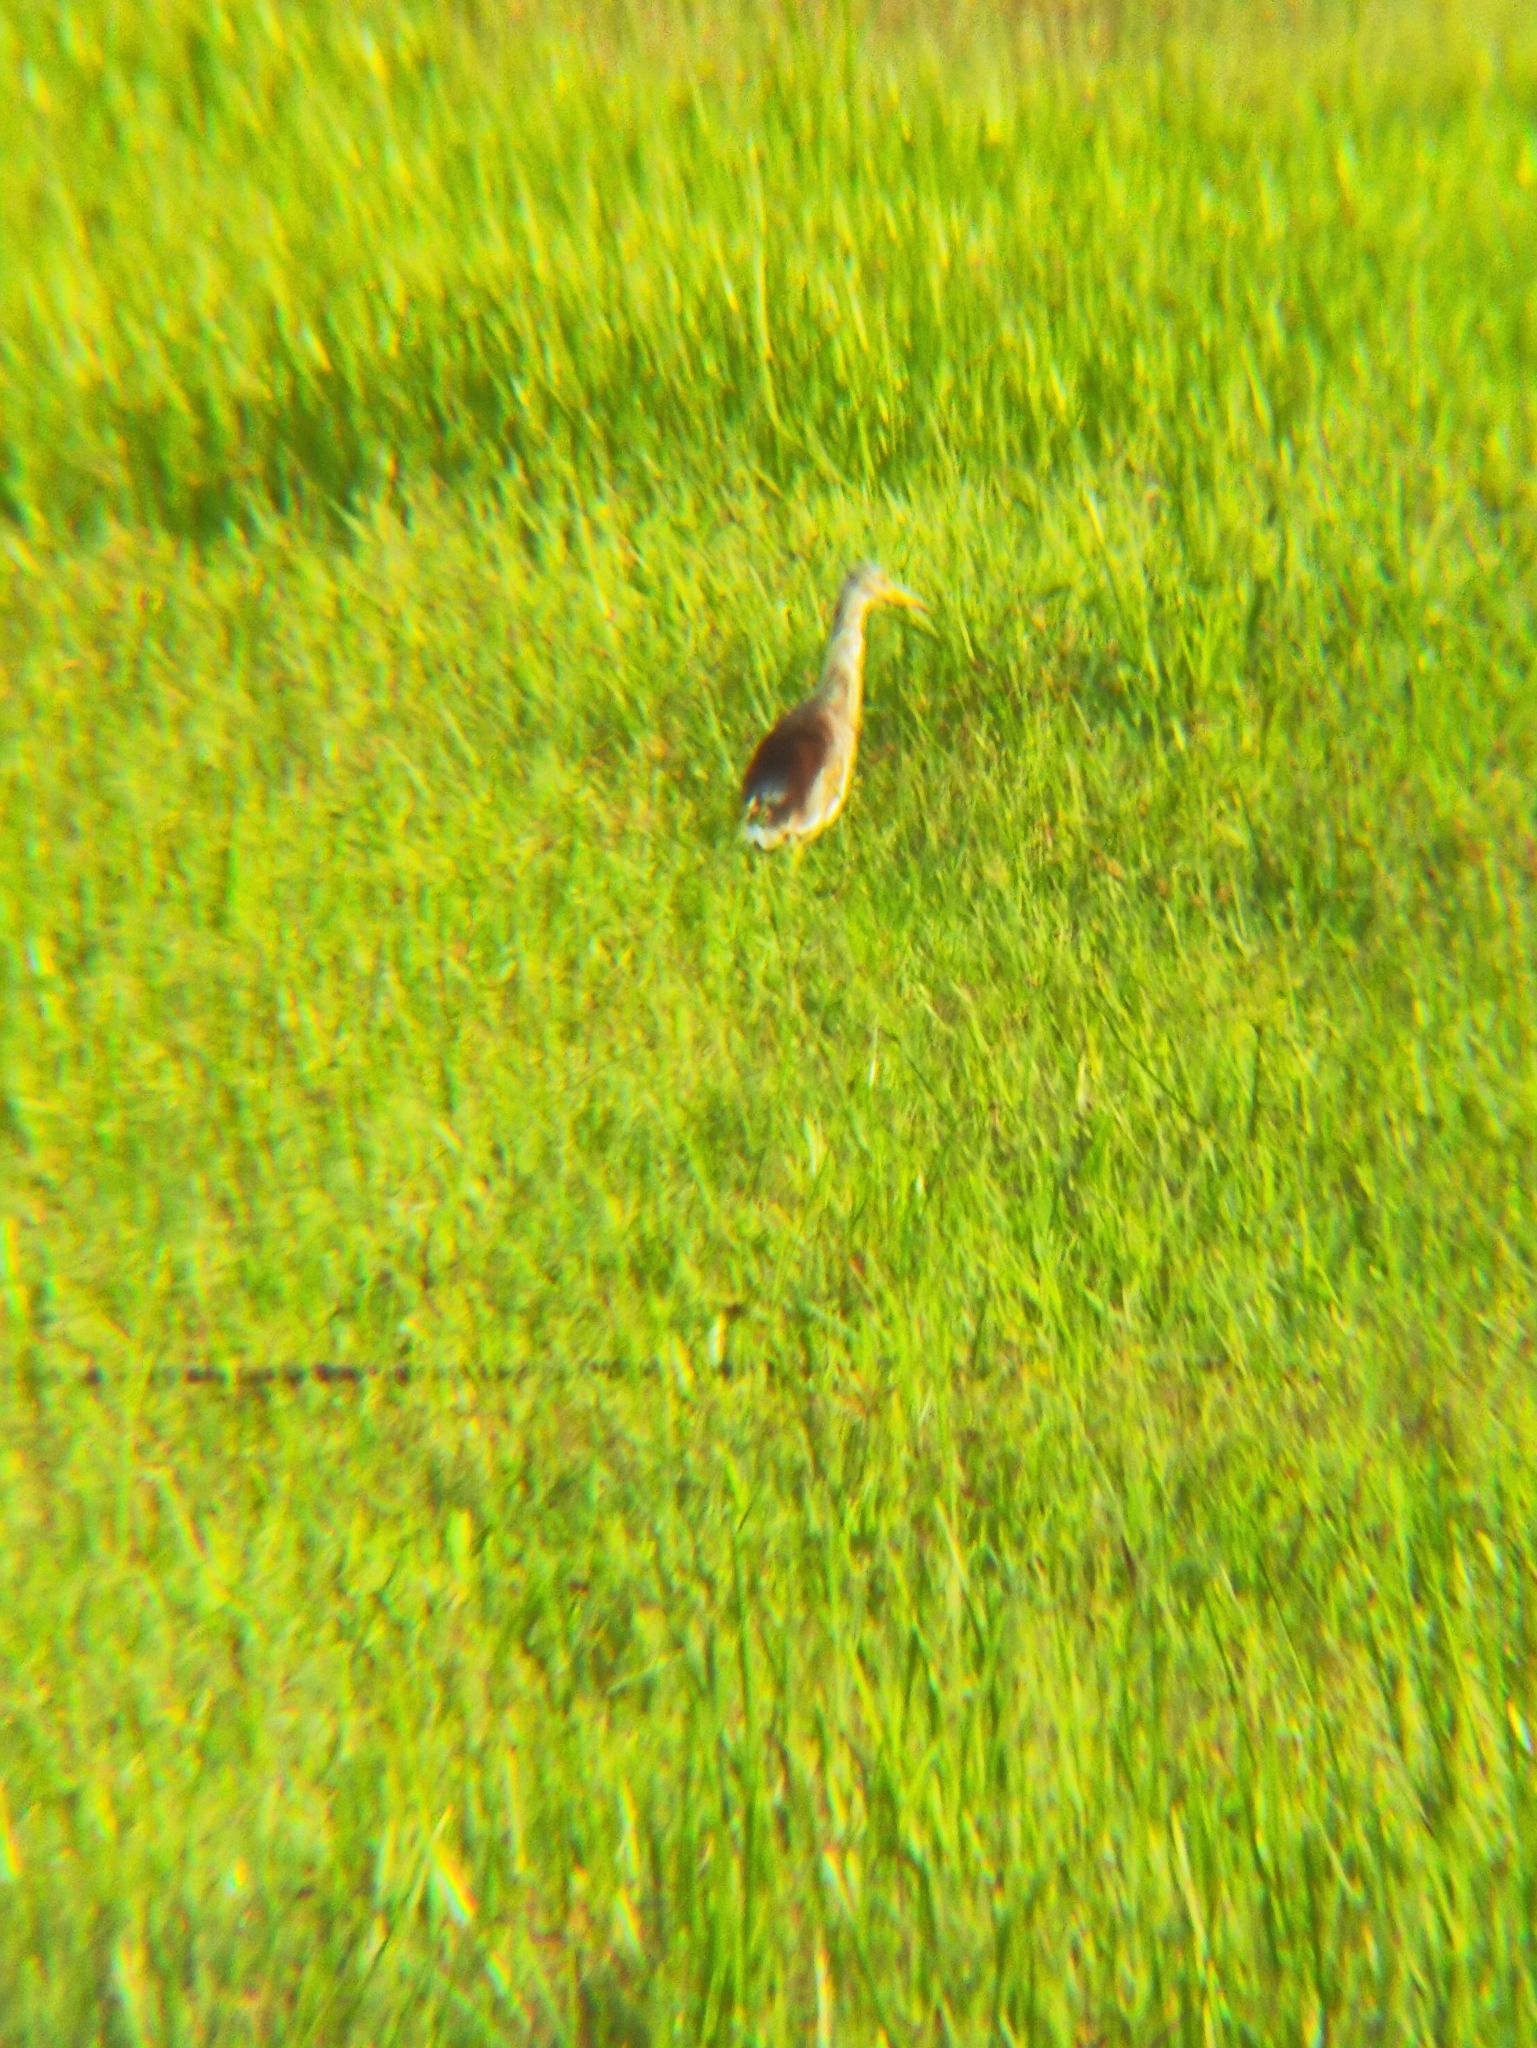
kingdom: Animalia
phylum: Chordata
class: Aves
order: Pelecaniformes
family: Ardeidae
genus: Ardeola
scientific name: Ardeola grayii
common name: Indian pond heron
